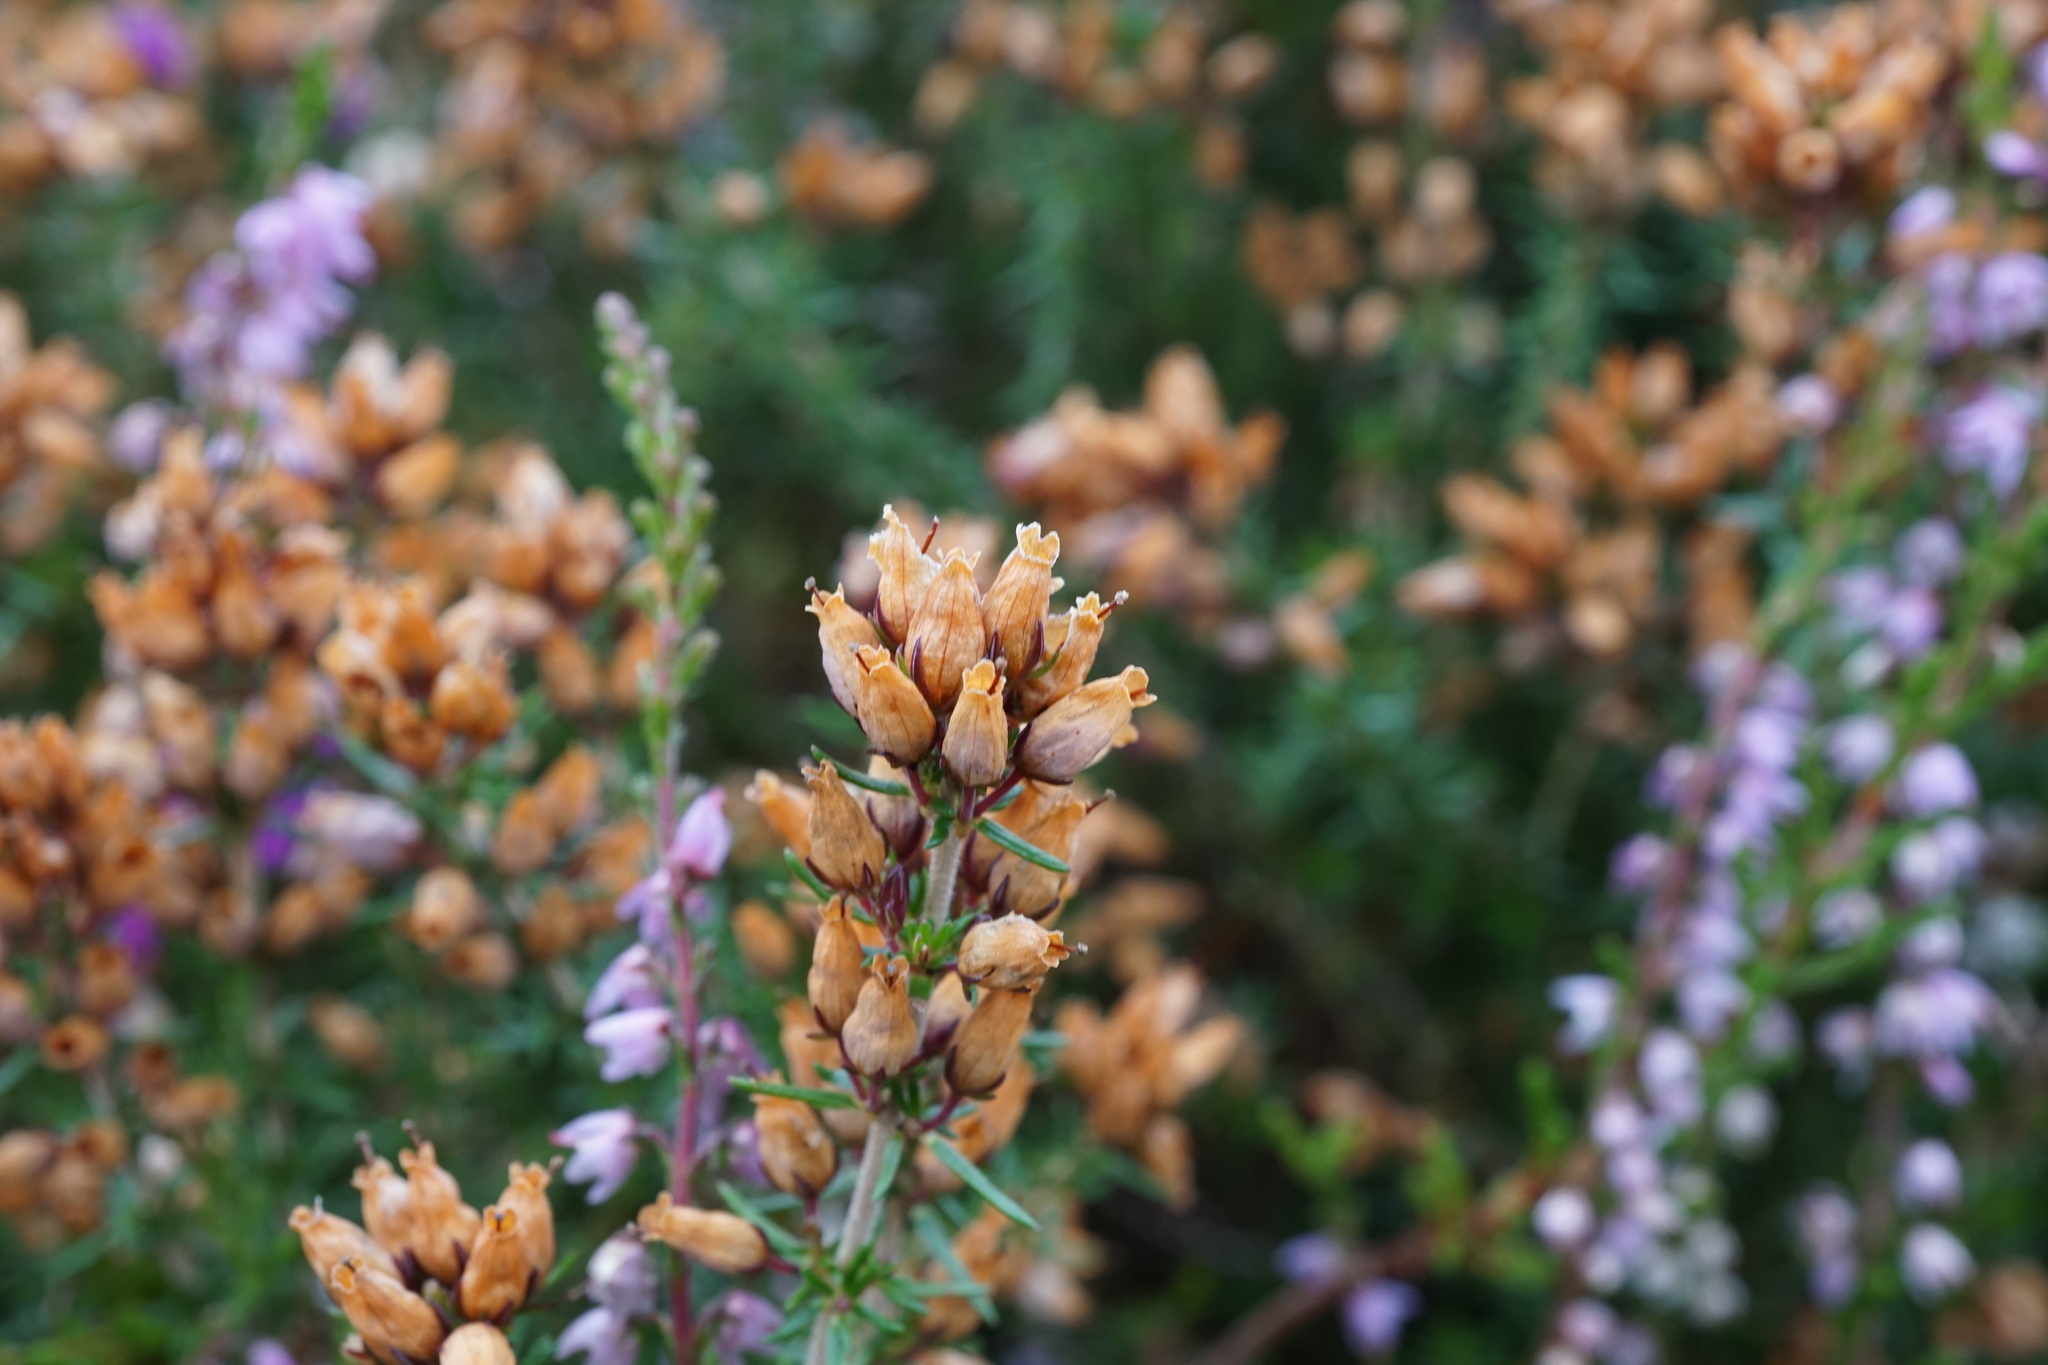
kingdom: Plantae
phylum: Tracheophyta
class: Magnoliopsida
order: Ericales
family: Ericaceae
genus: Calluna
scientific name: Calluna vulgaris
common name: Heather
